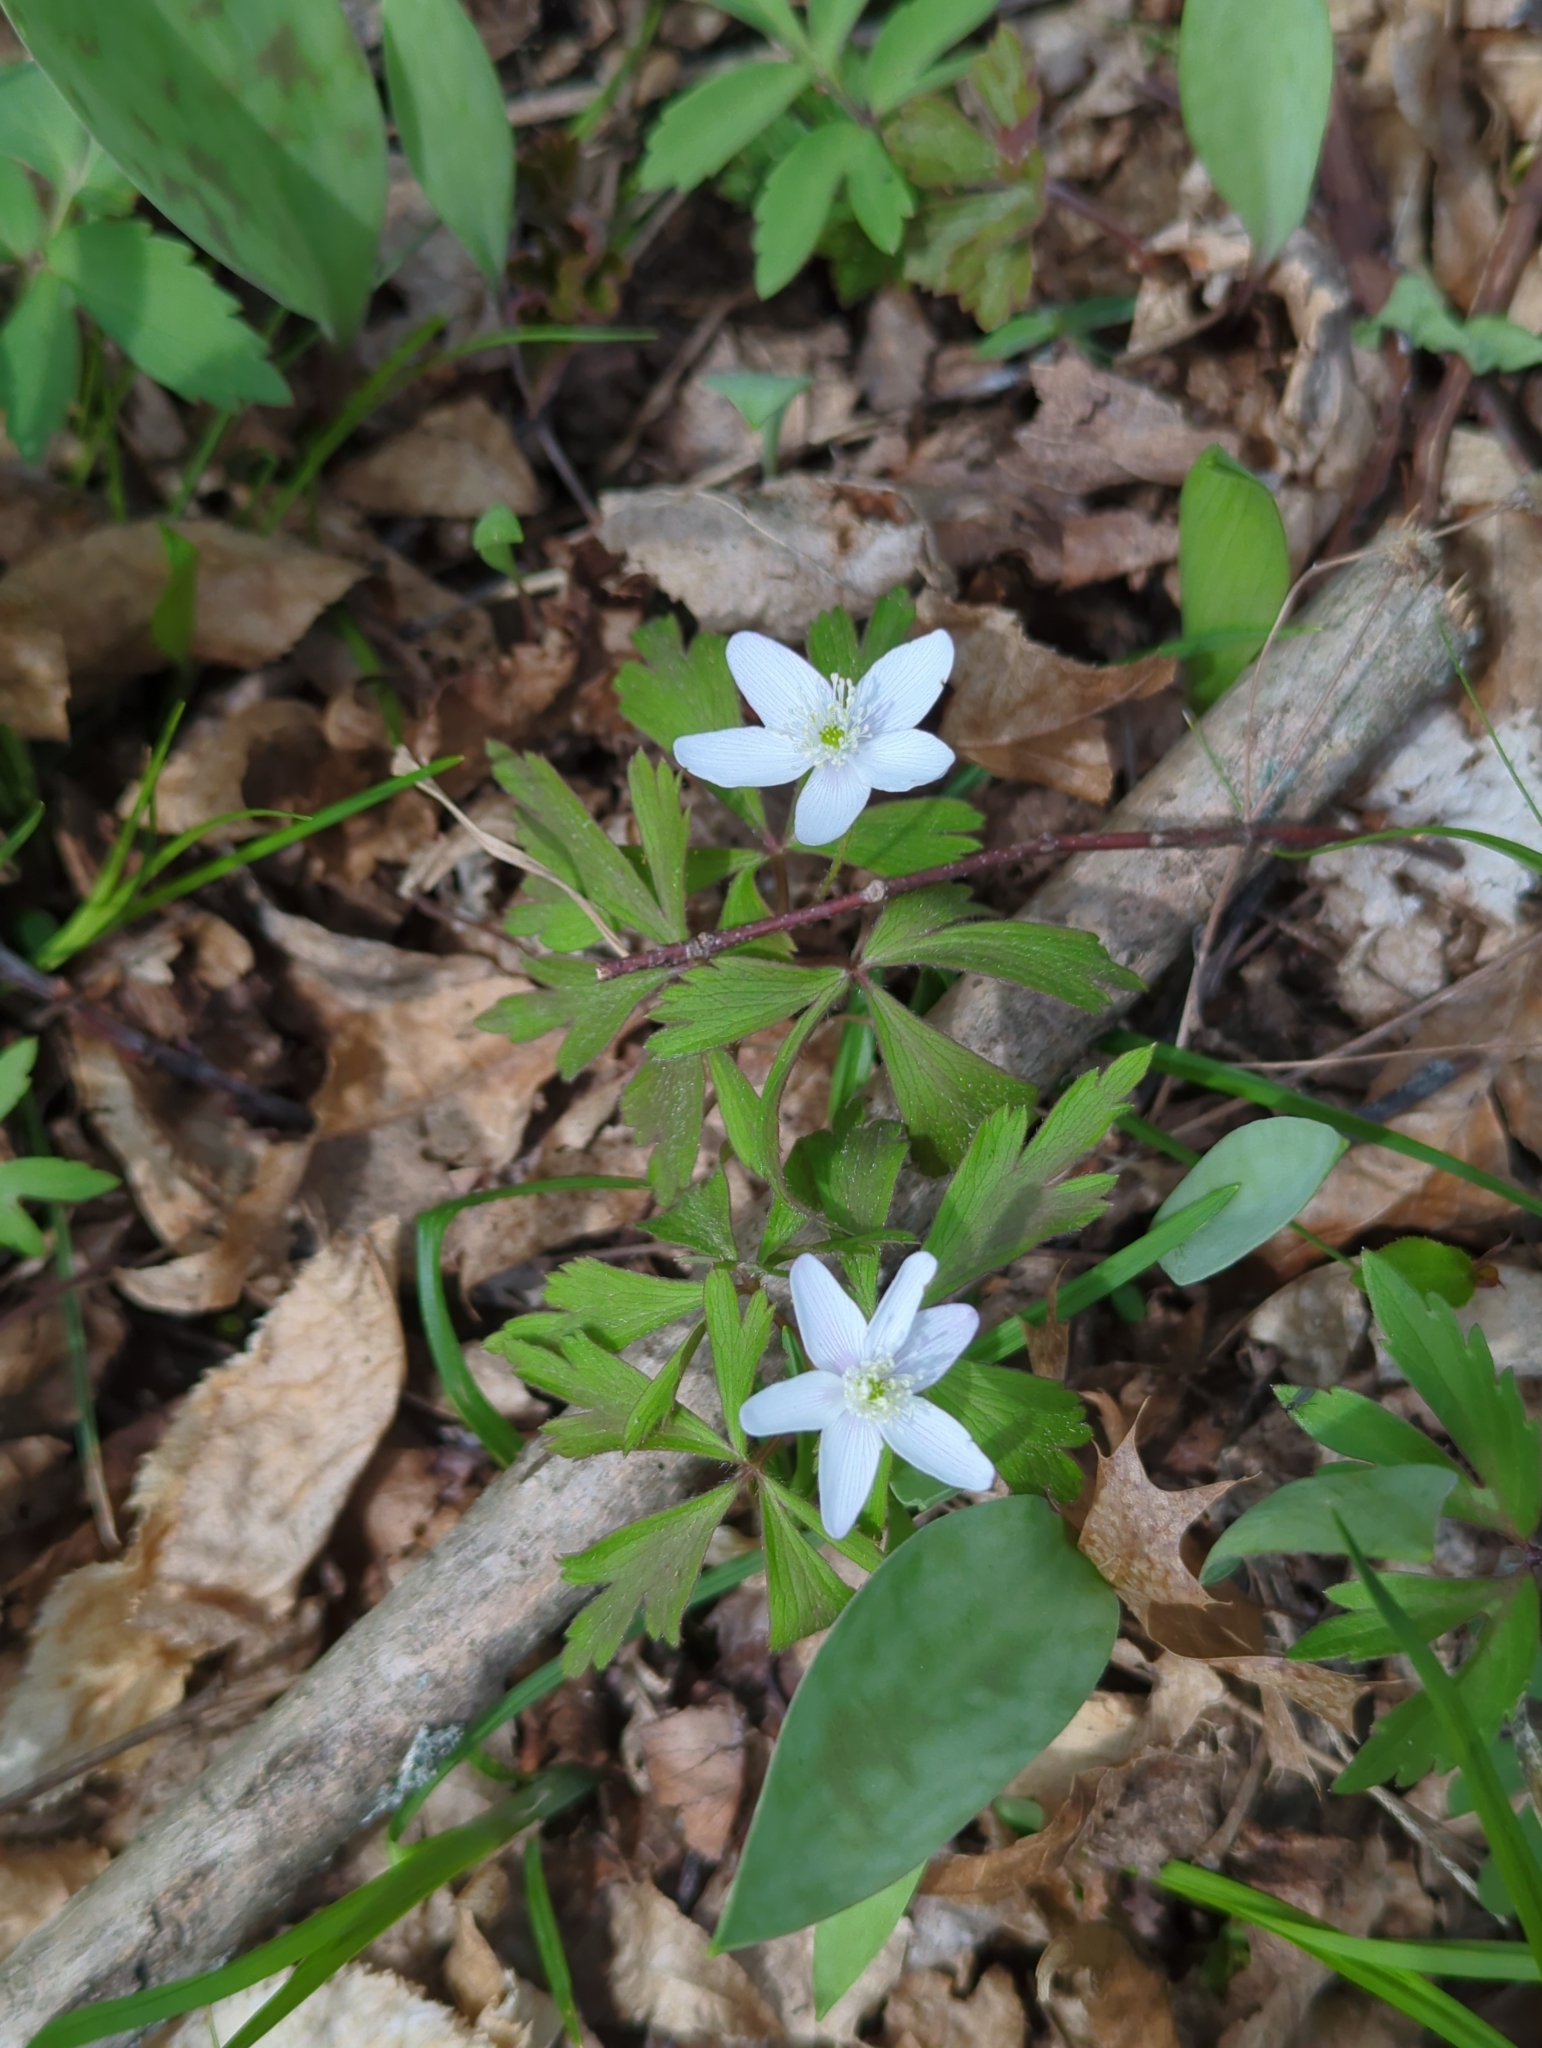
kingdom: Plantae
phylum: Tracheophyta
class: Magnoliopsida
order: Ranunculales
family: Ranunculaceae
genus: Anemone
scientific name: Anemone quinquefolia
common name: Wood anemone
